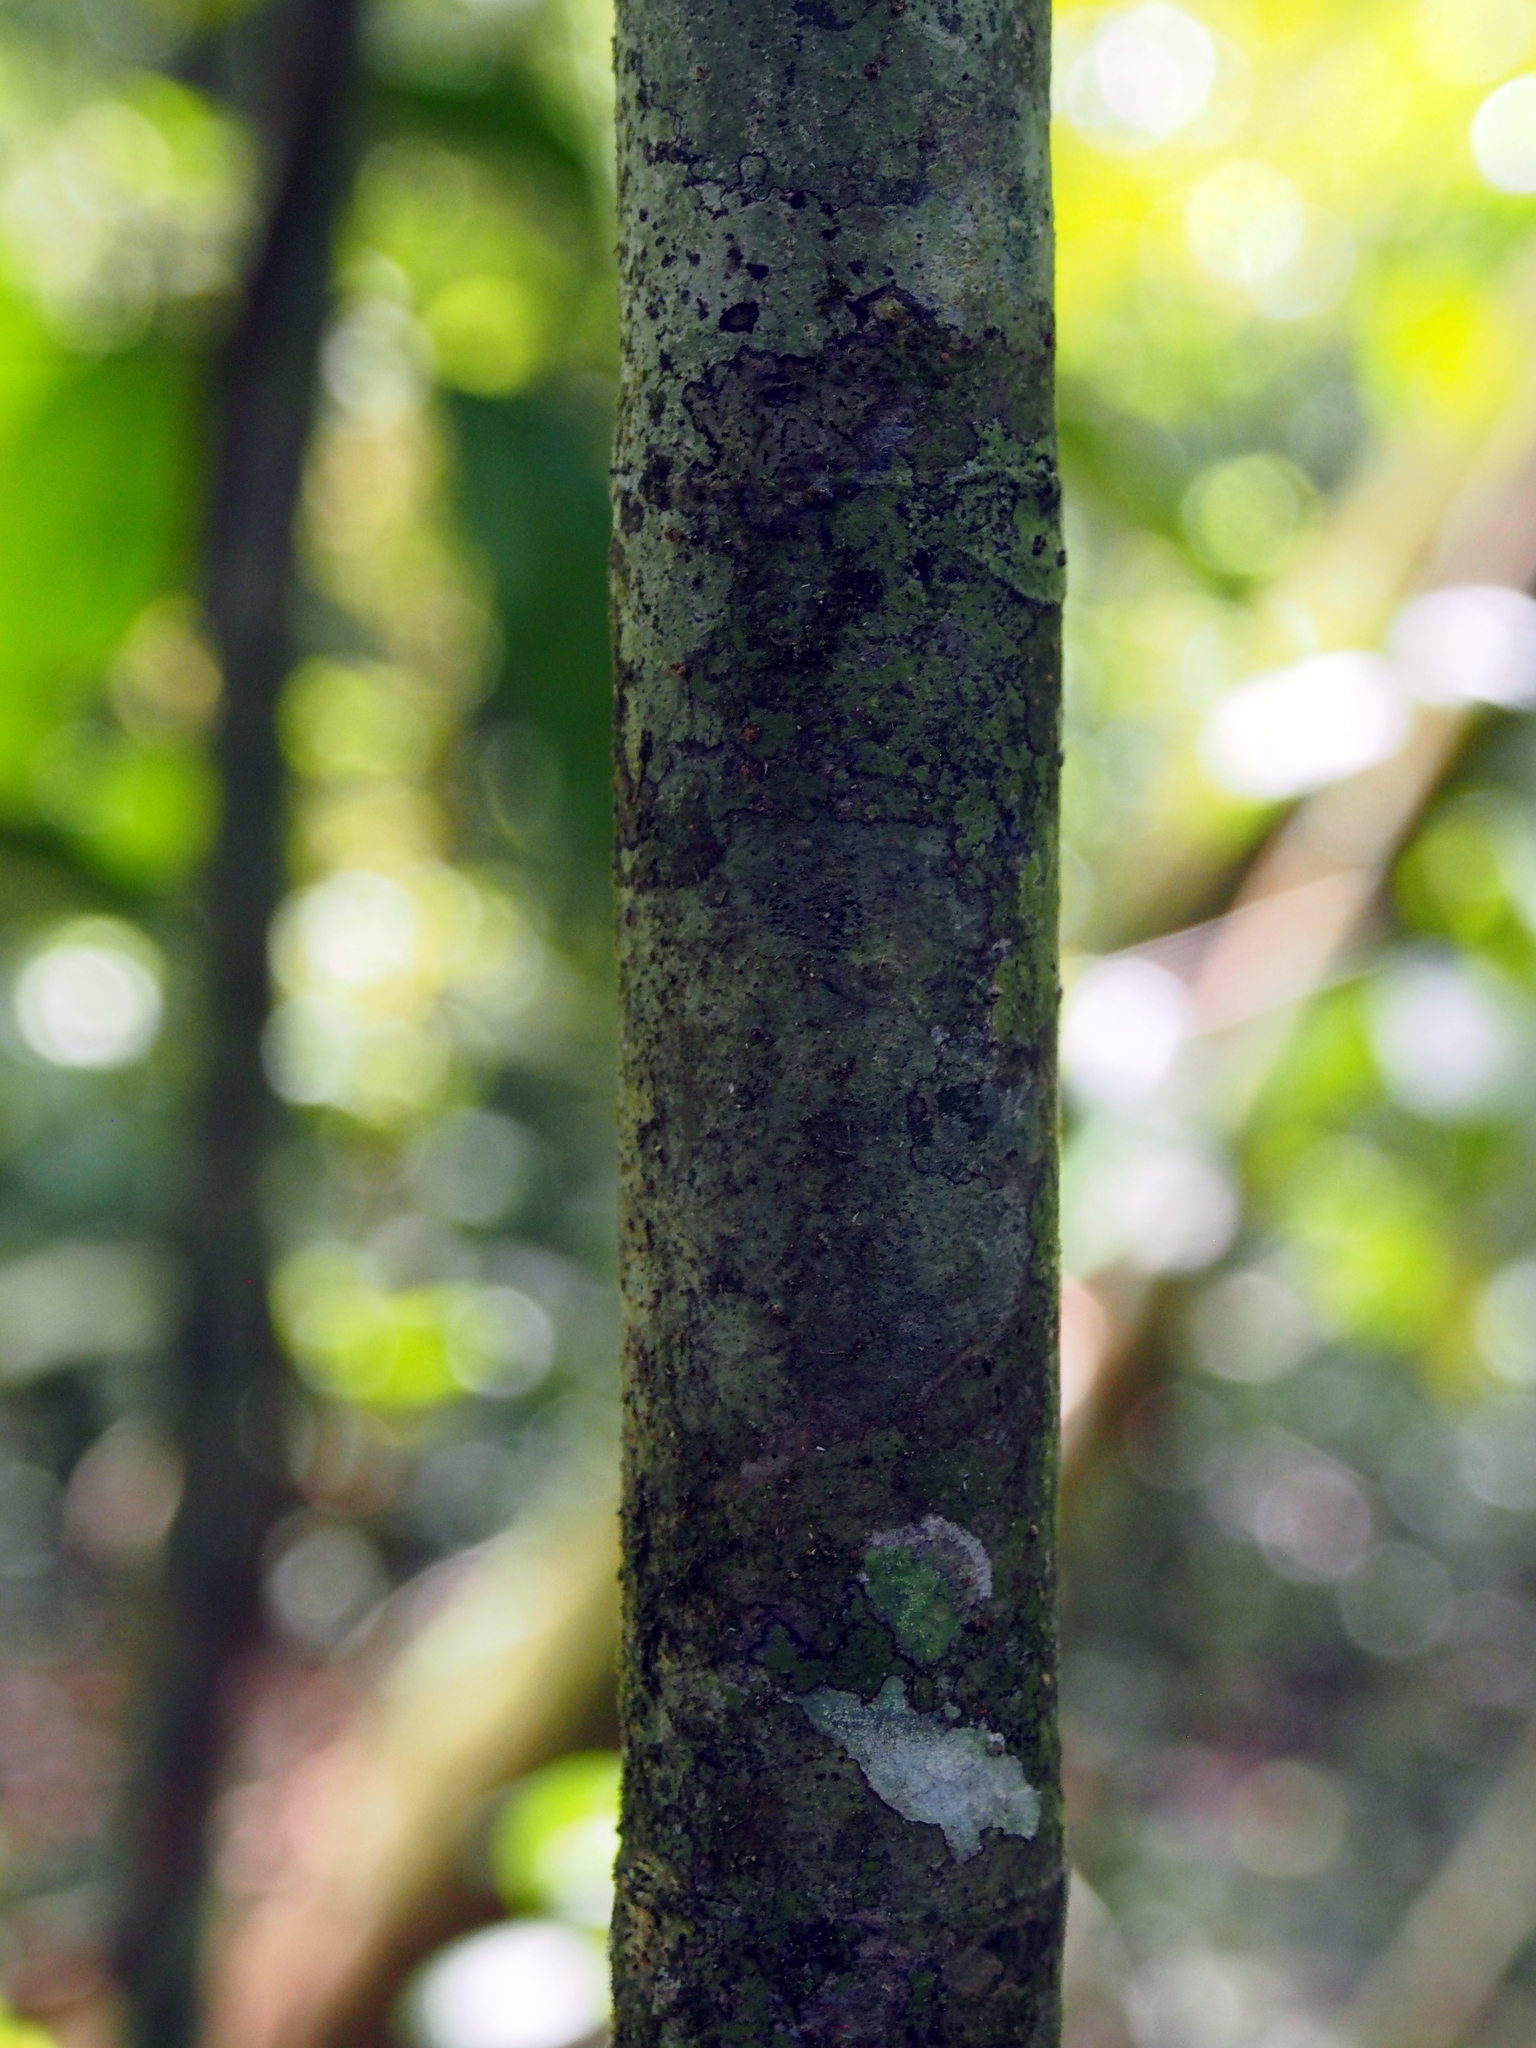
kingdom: Plantae
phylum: Tracheophyta
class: Magnoliopsida
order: Proteales
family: Sabiaceae
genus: Meliosma
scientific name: Meliosma glabrata
